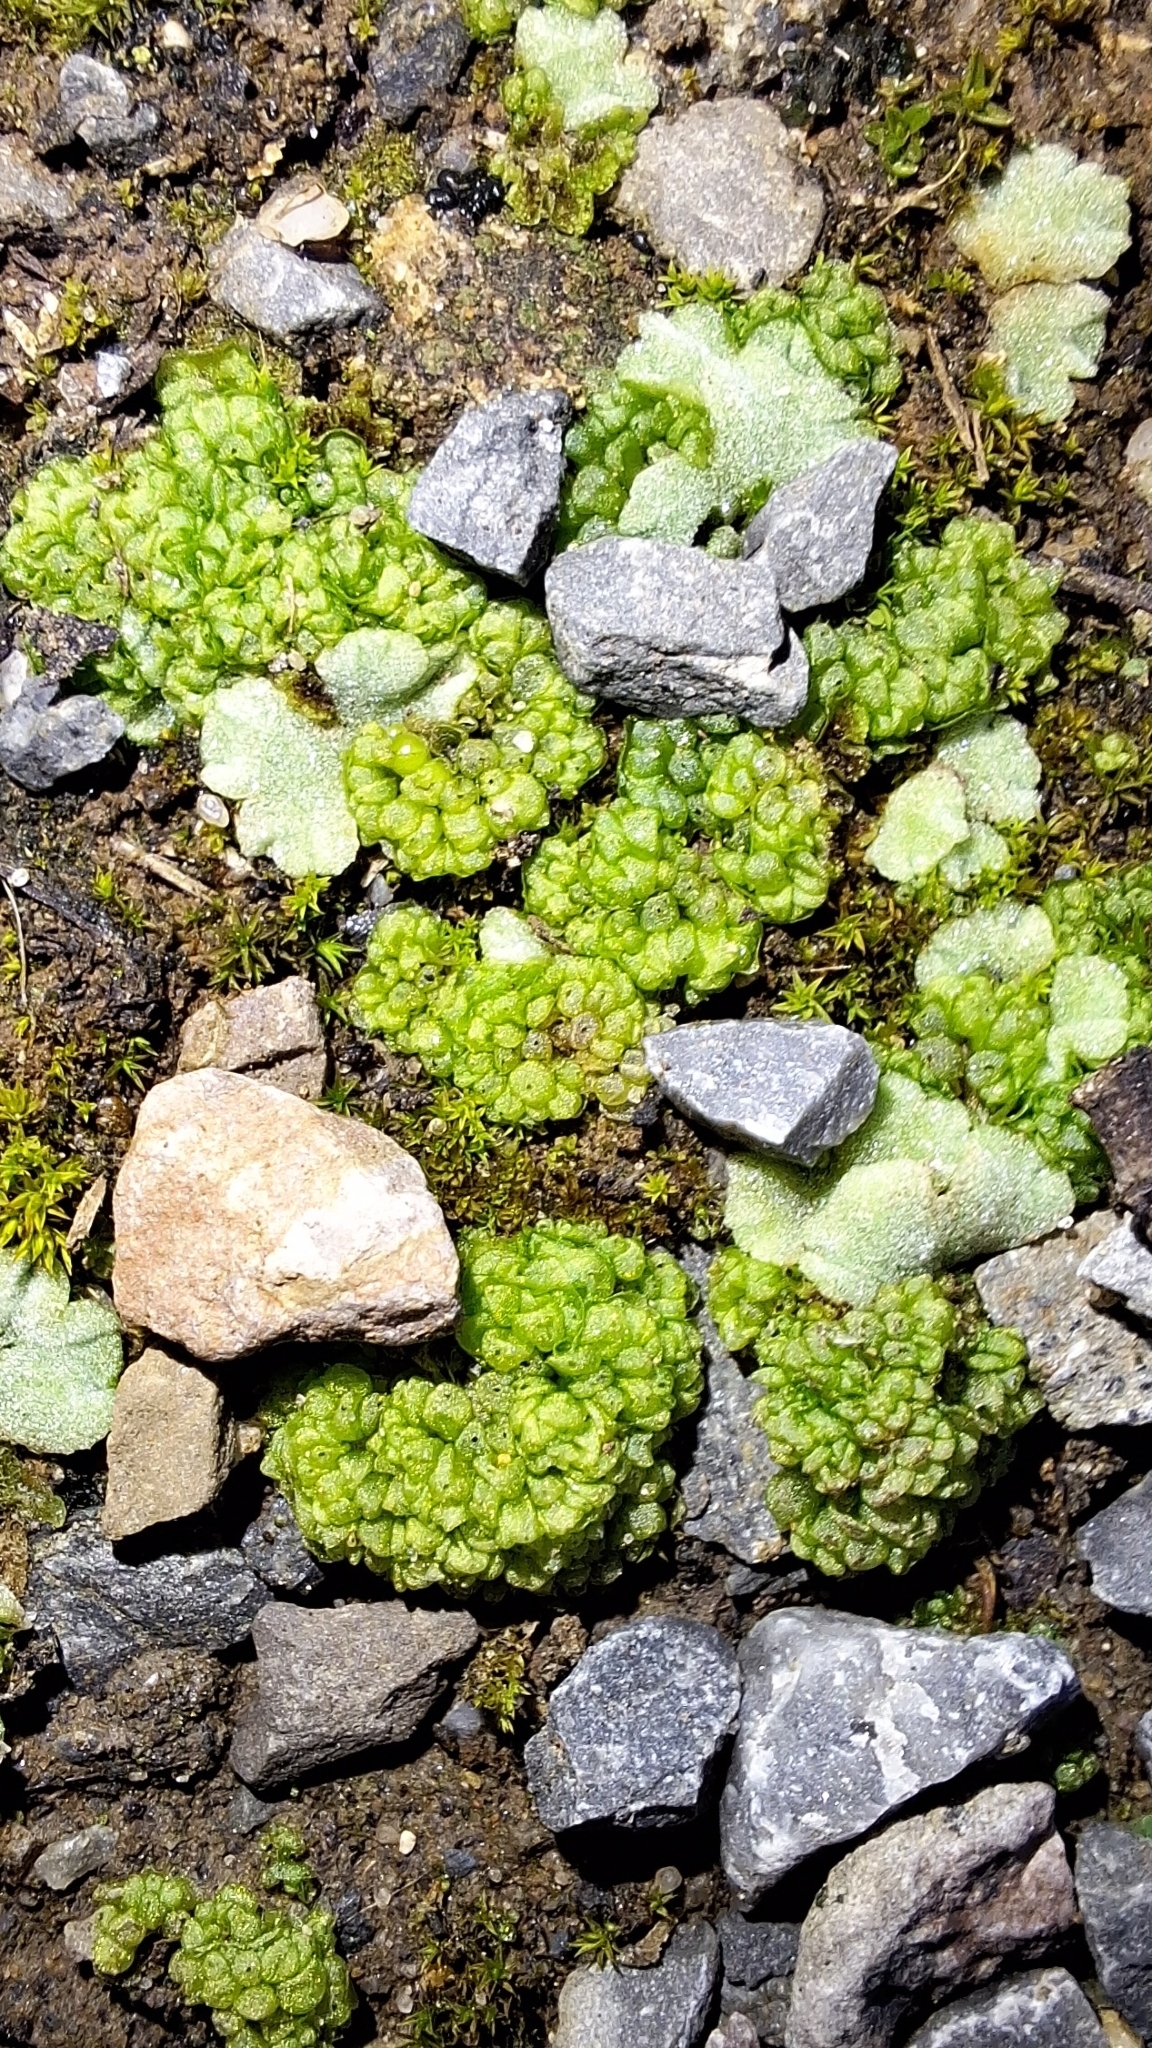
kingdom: Plantae
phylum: Marchantiophyta
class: Marchantiopsida
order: Sphaerocarpales
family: Sphaerocarpaceae
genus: Sphaerocarpos
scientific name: Sphaerocarpos texanus
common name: Texas balloonwort
